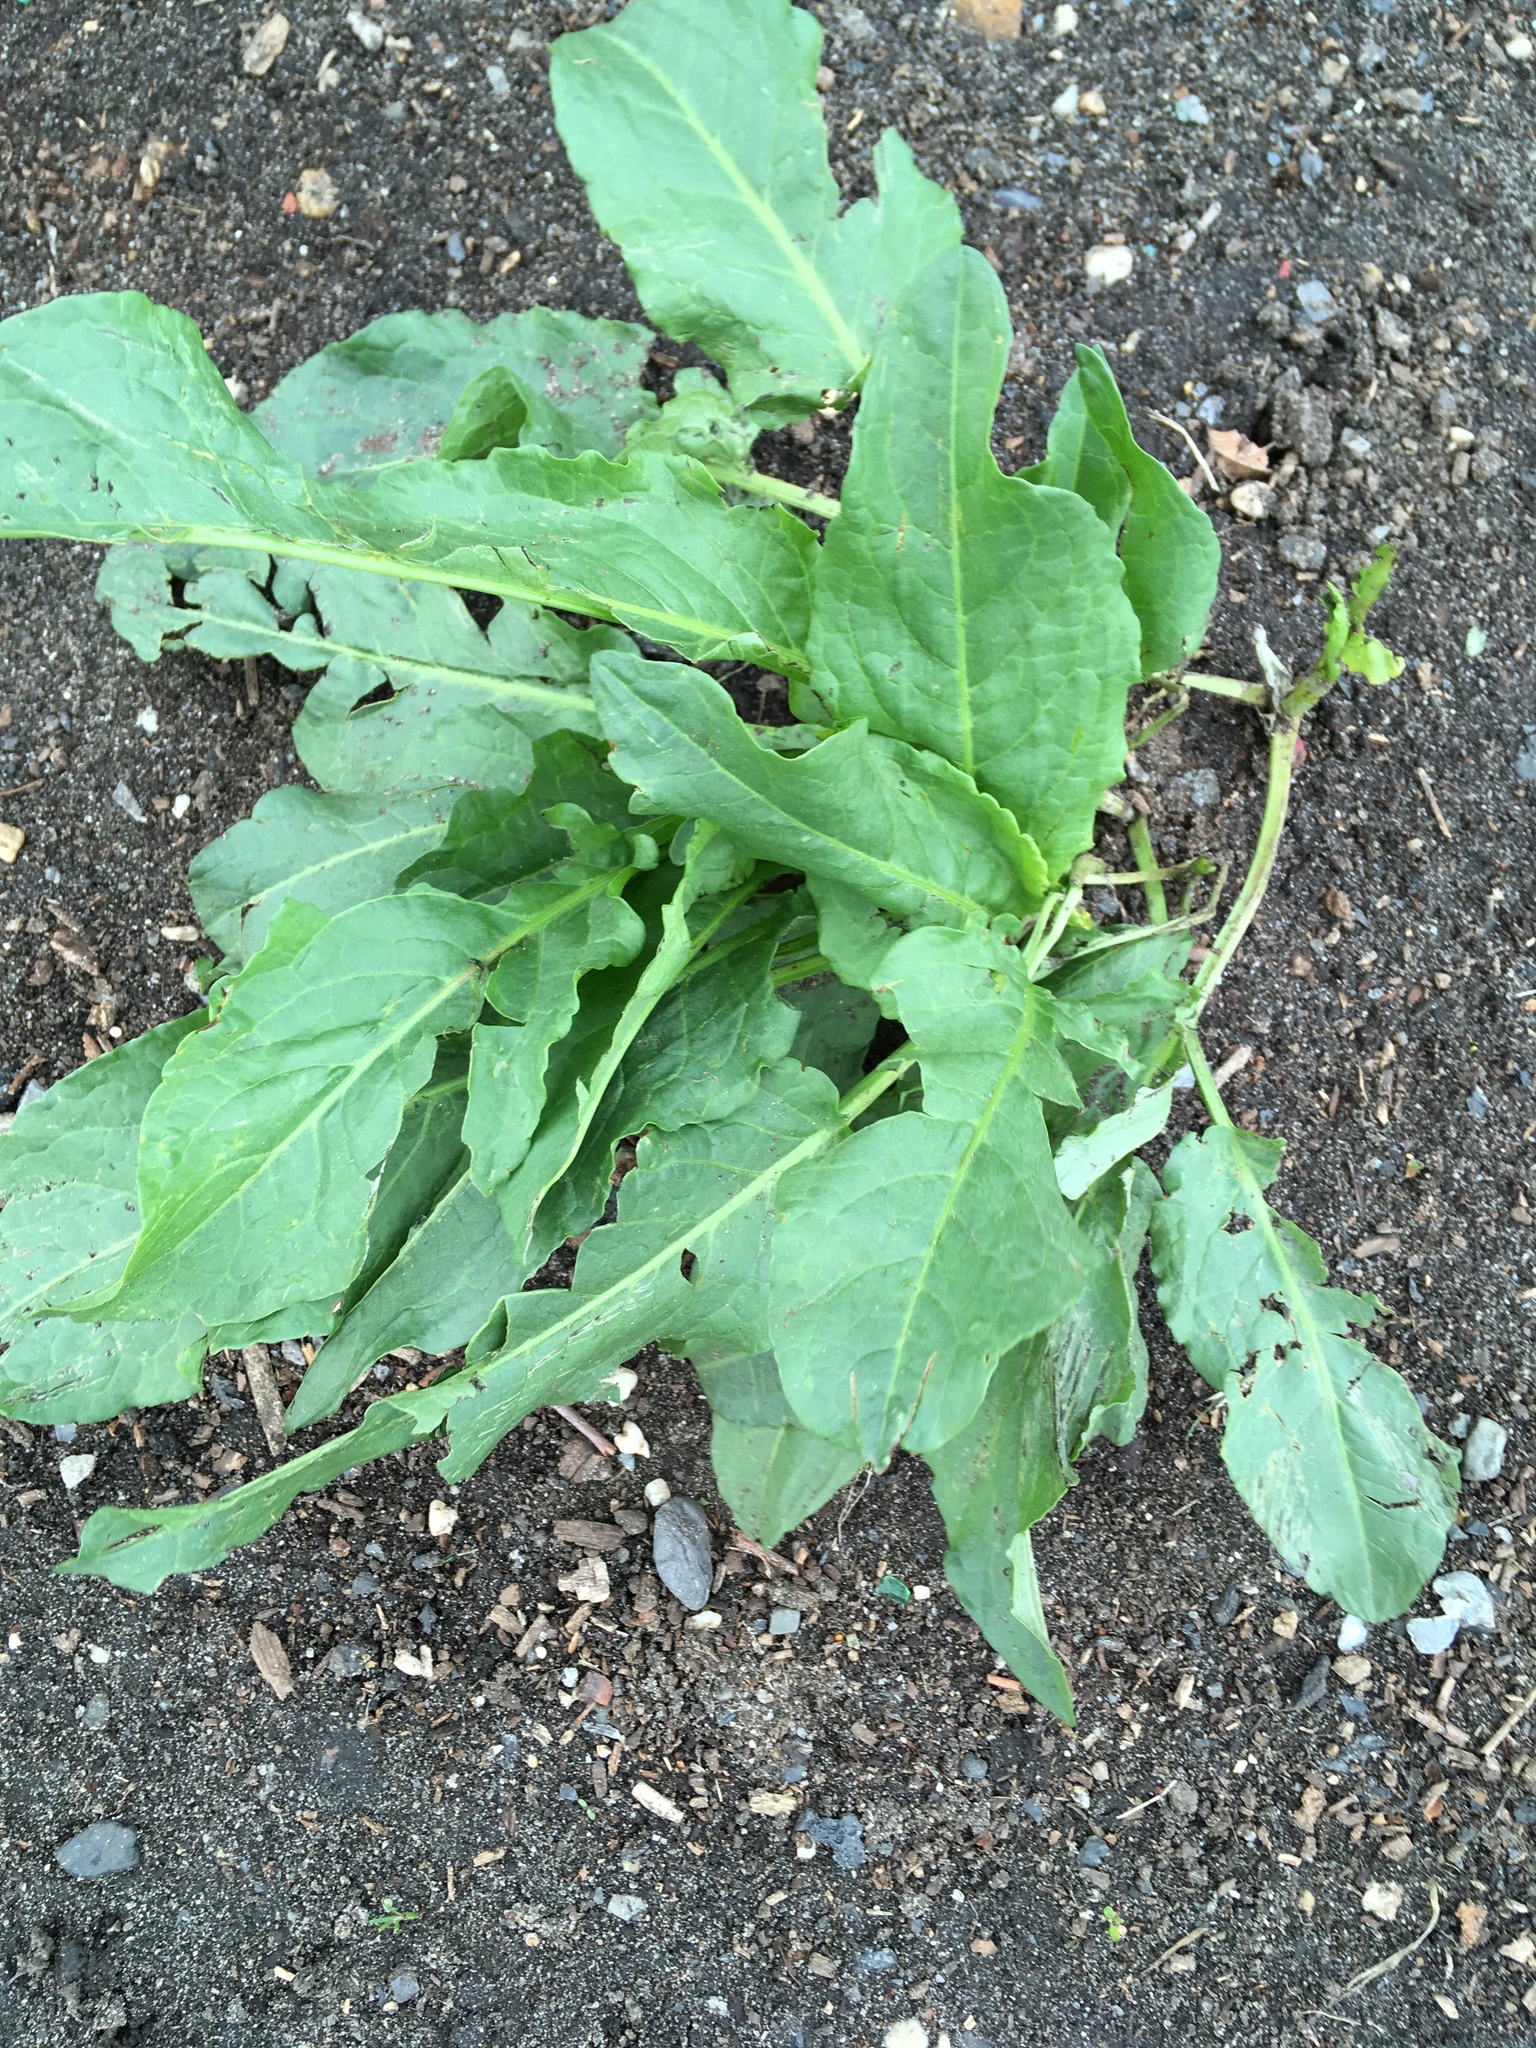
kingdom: Plantae
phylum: Tracheophyta
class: Magnoliopsida
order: Caryophyllales
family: Polygonaceae
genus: Rumex
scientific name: Rumex patientia
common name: Patience dock
